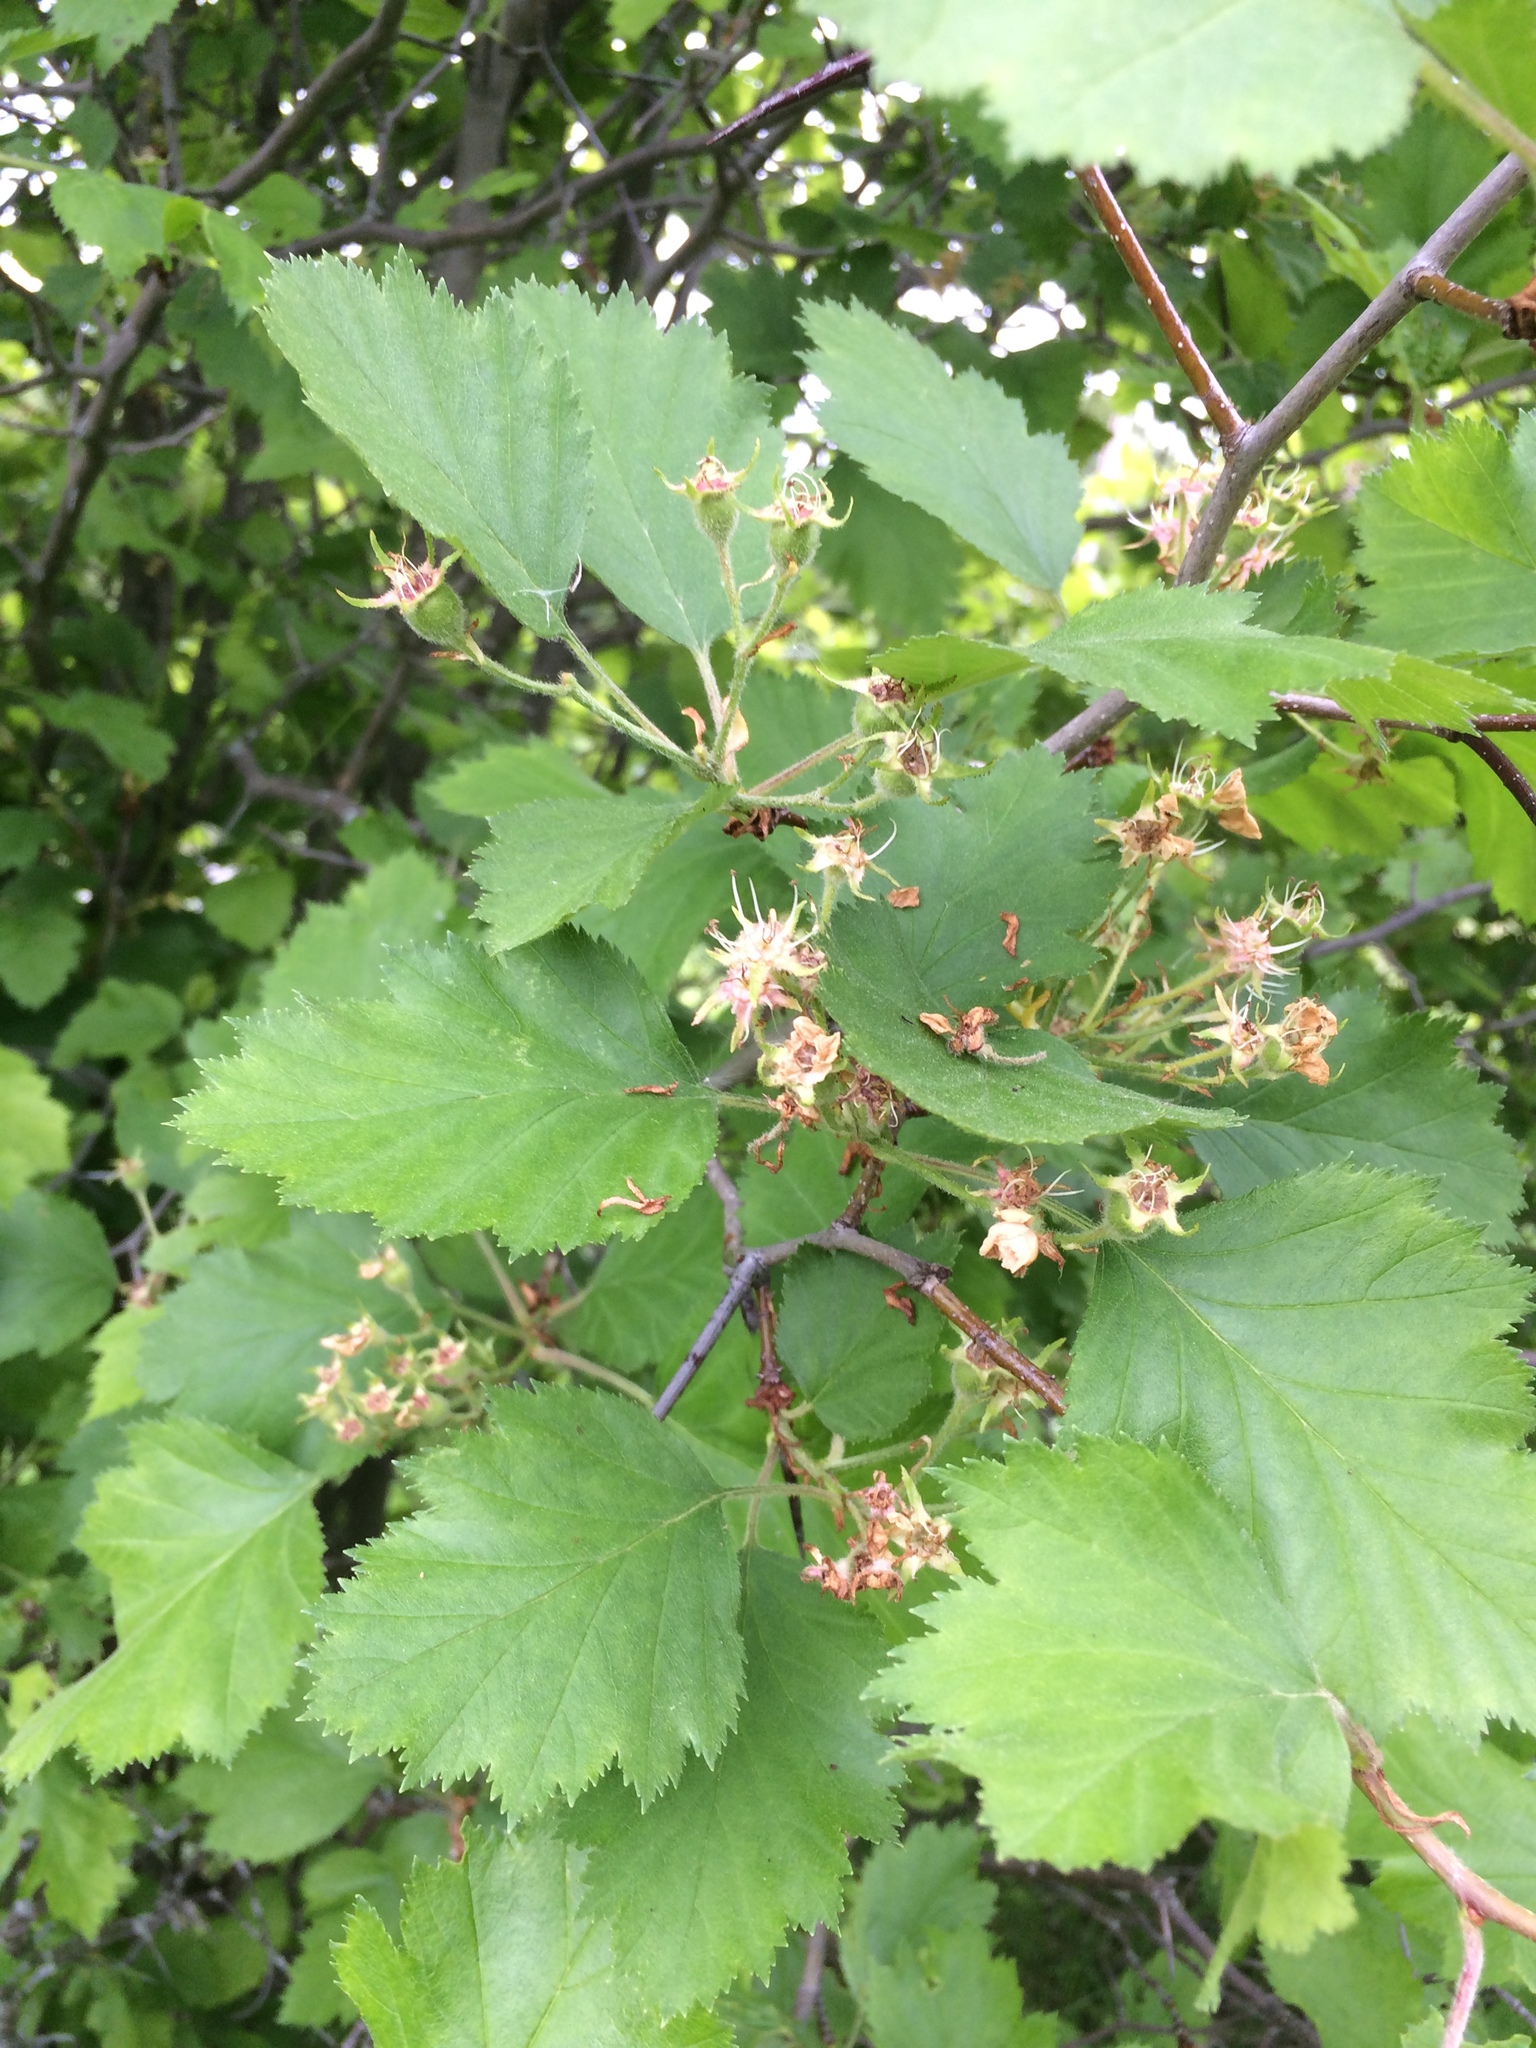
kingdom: Plantae
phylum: Tracheophyta
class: Magnoliopsida
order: Rosales
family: Rosaceae
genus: Crataegus
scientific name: Crataegus submollis
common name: Hairy cockspurthorn
